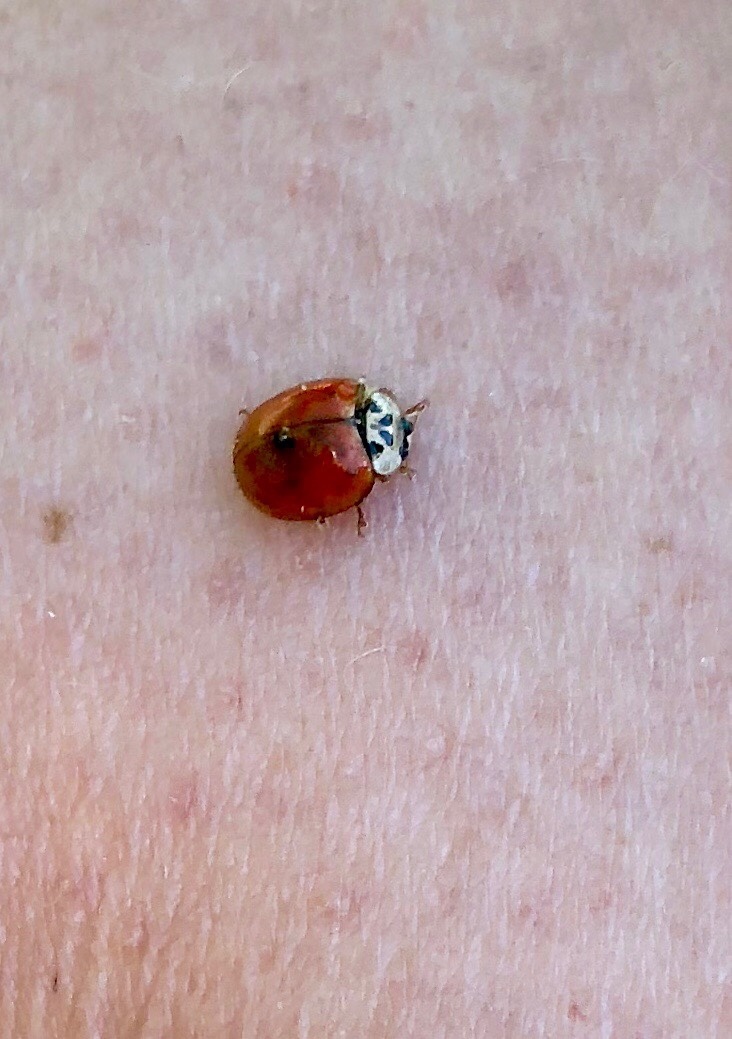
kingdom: Animalia
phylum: Arthropoda
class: Insecta
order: Coleoptera
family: Coccinellidae
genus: Harmonia
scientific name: Harmonia axyridis
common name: Harlequin ladybird
